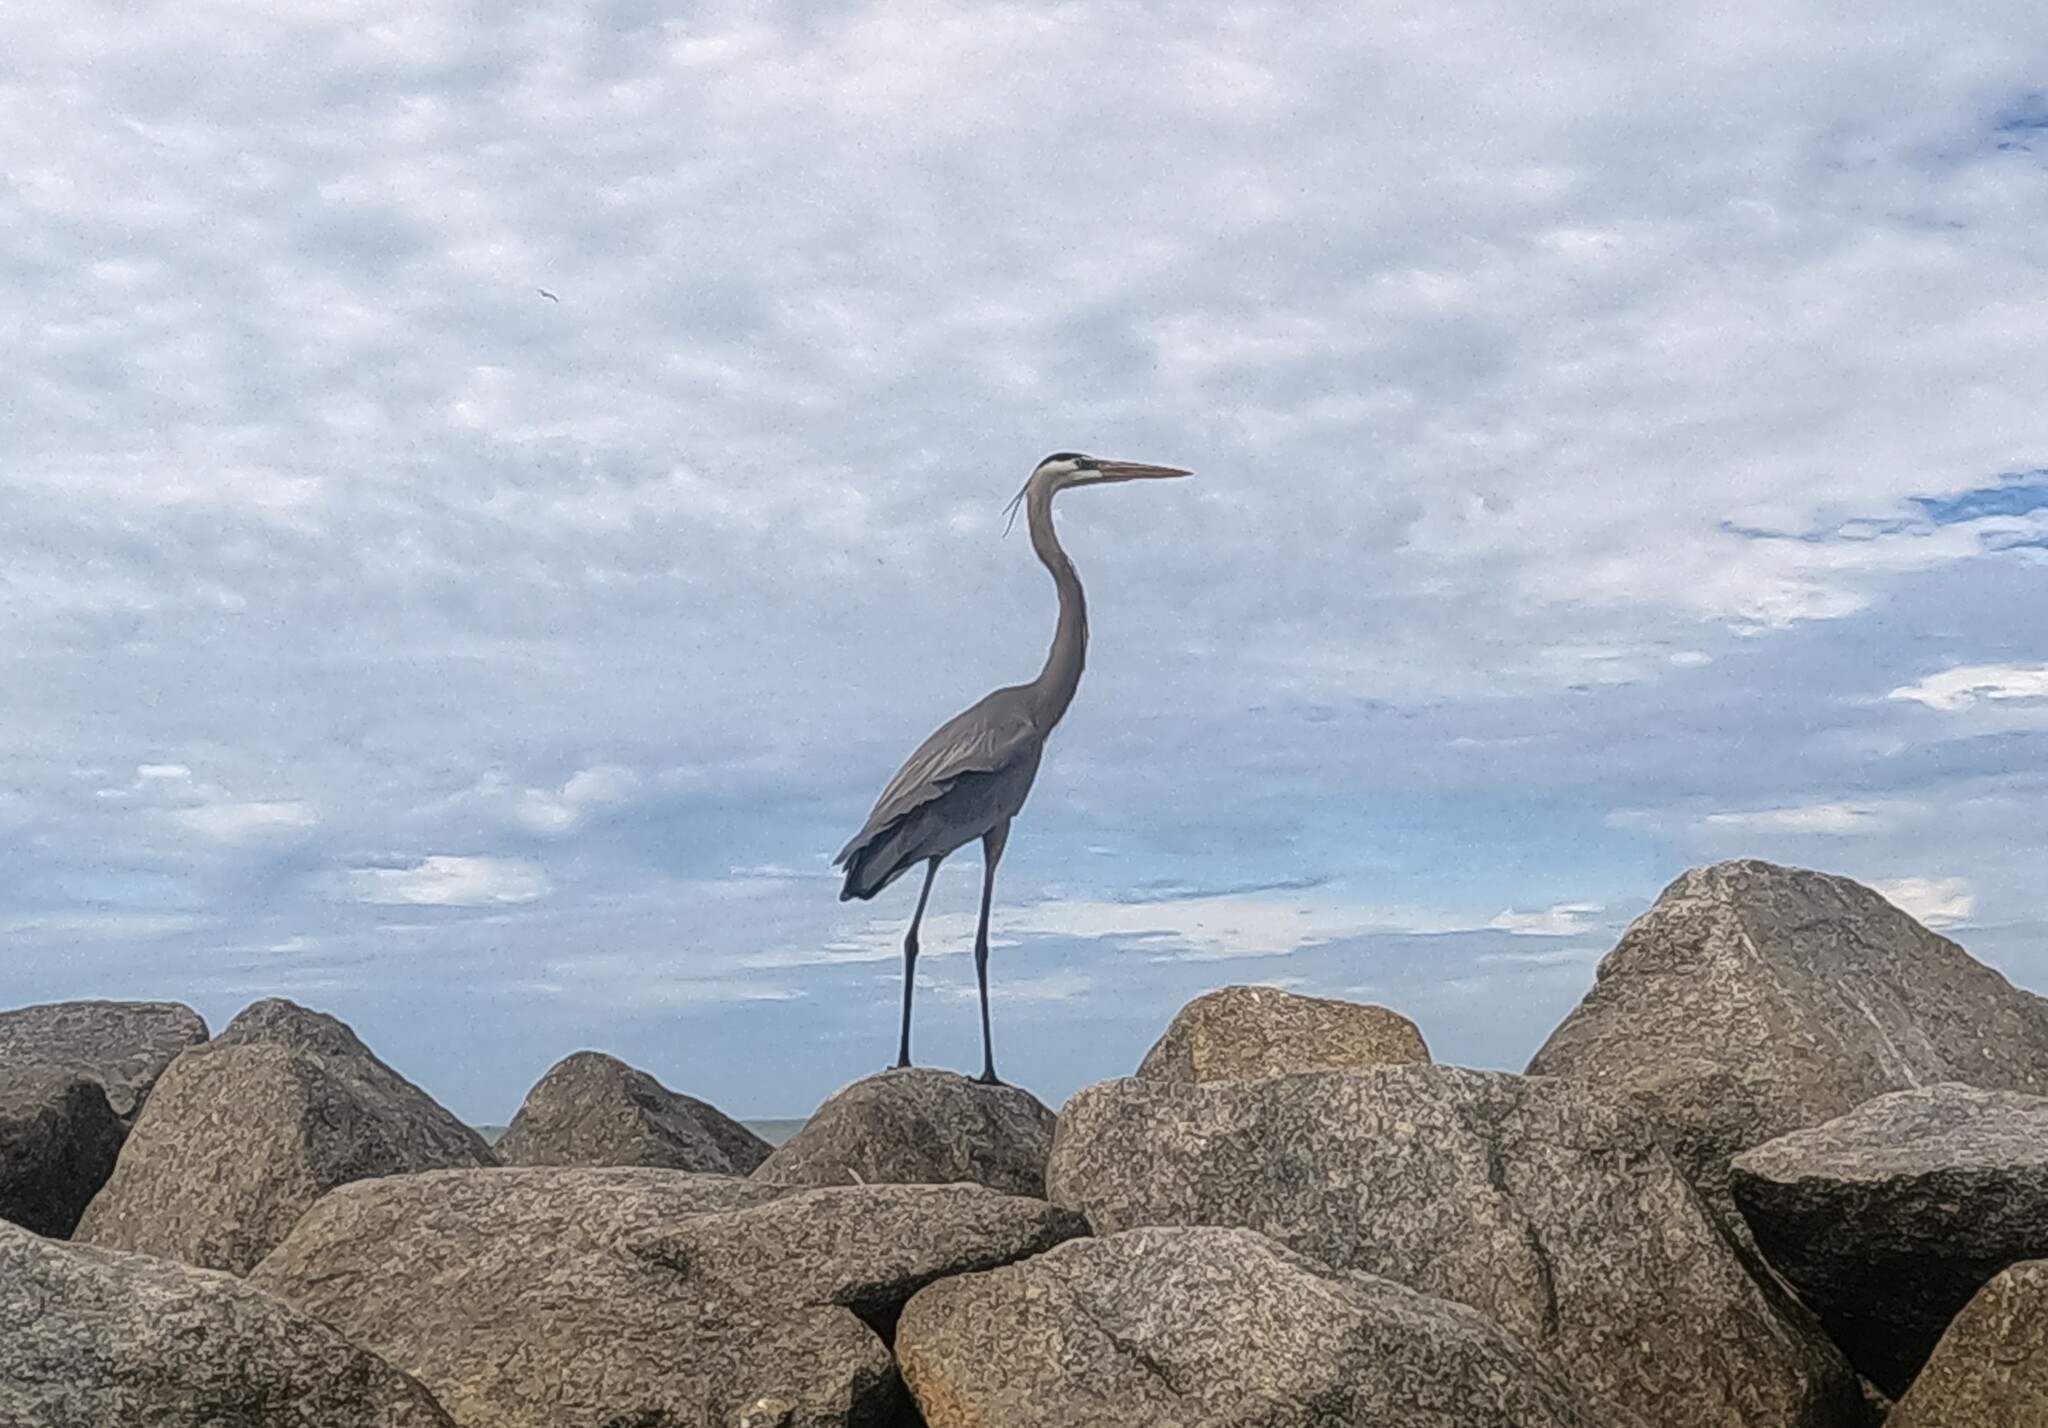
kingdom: Animalia
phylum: Chordata
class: Aves
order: Pelecaniformes
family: Ardeidae
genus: Ardea
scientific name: Ardea herodias
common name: Great blue heron
